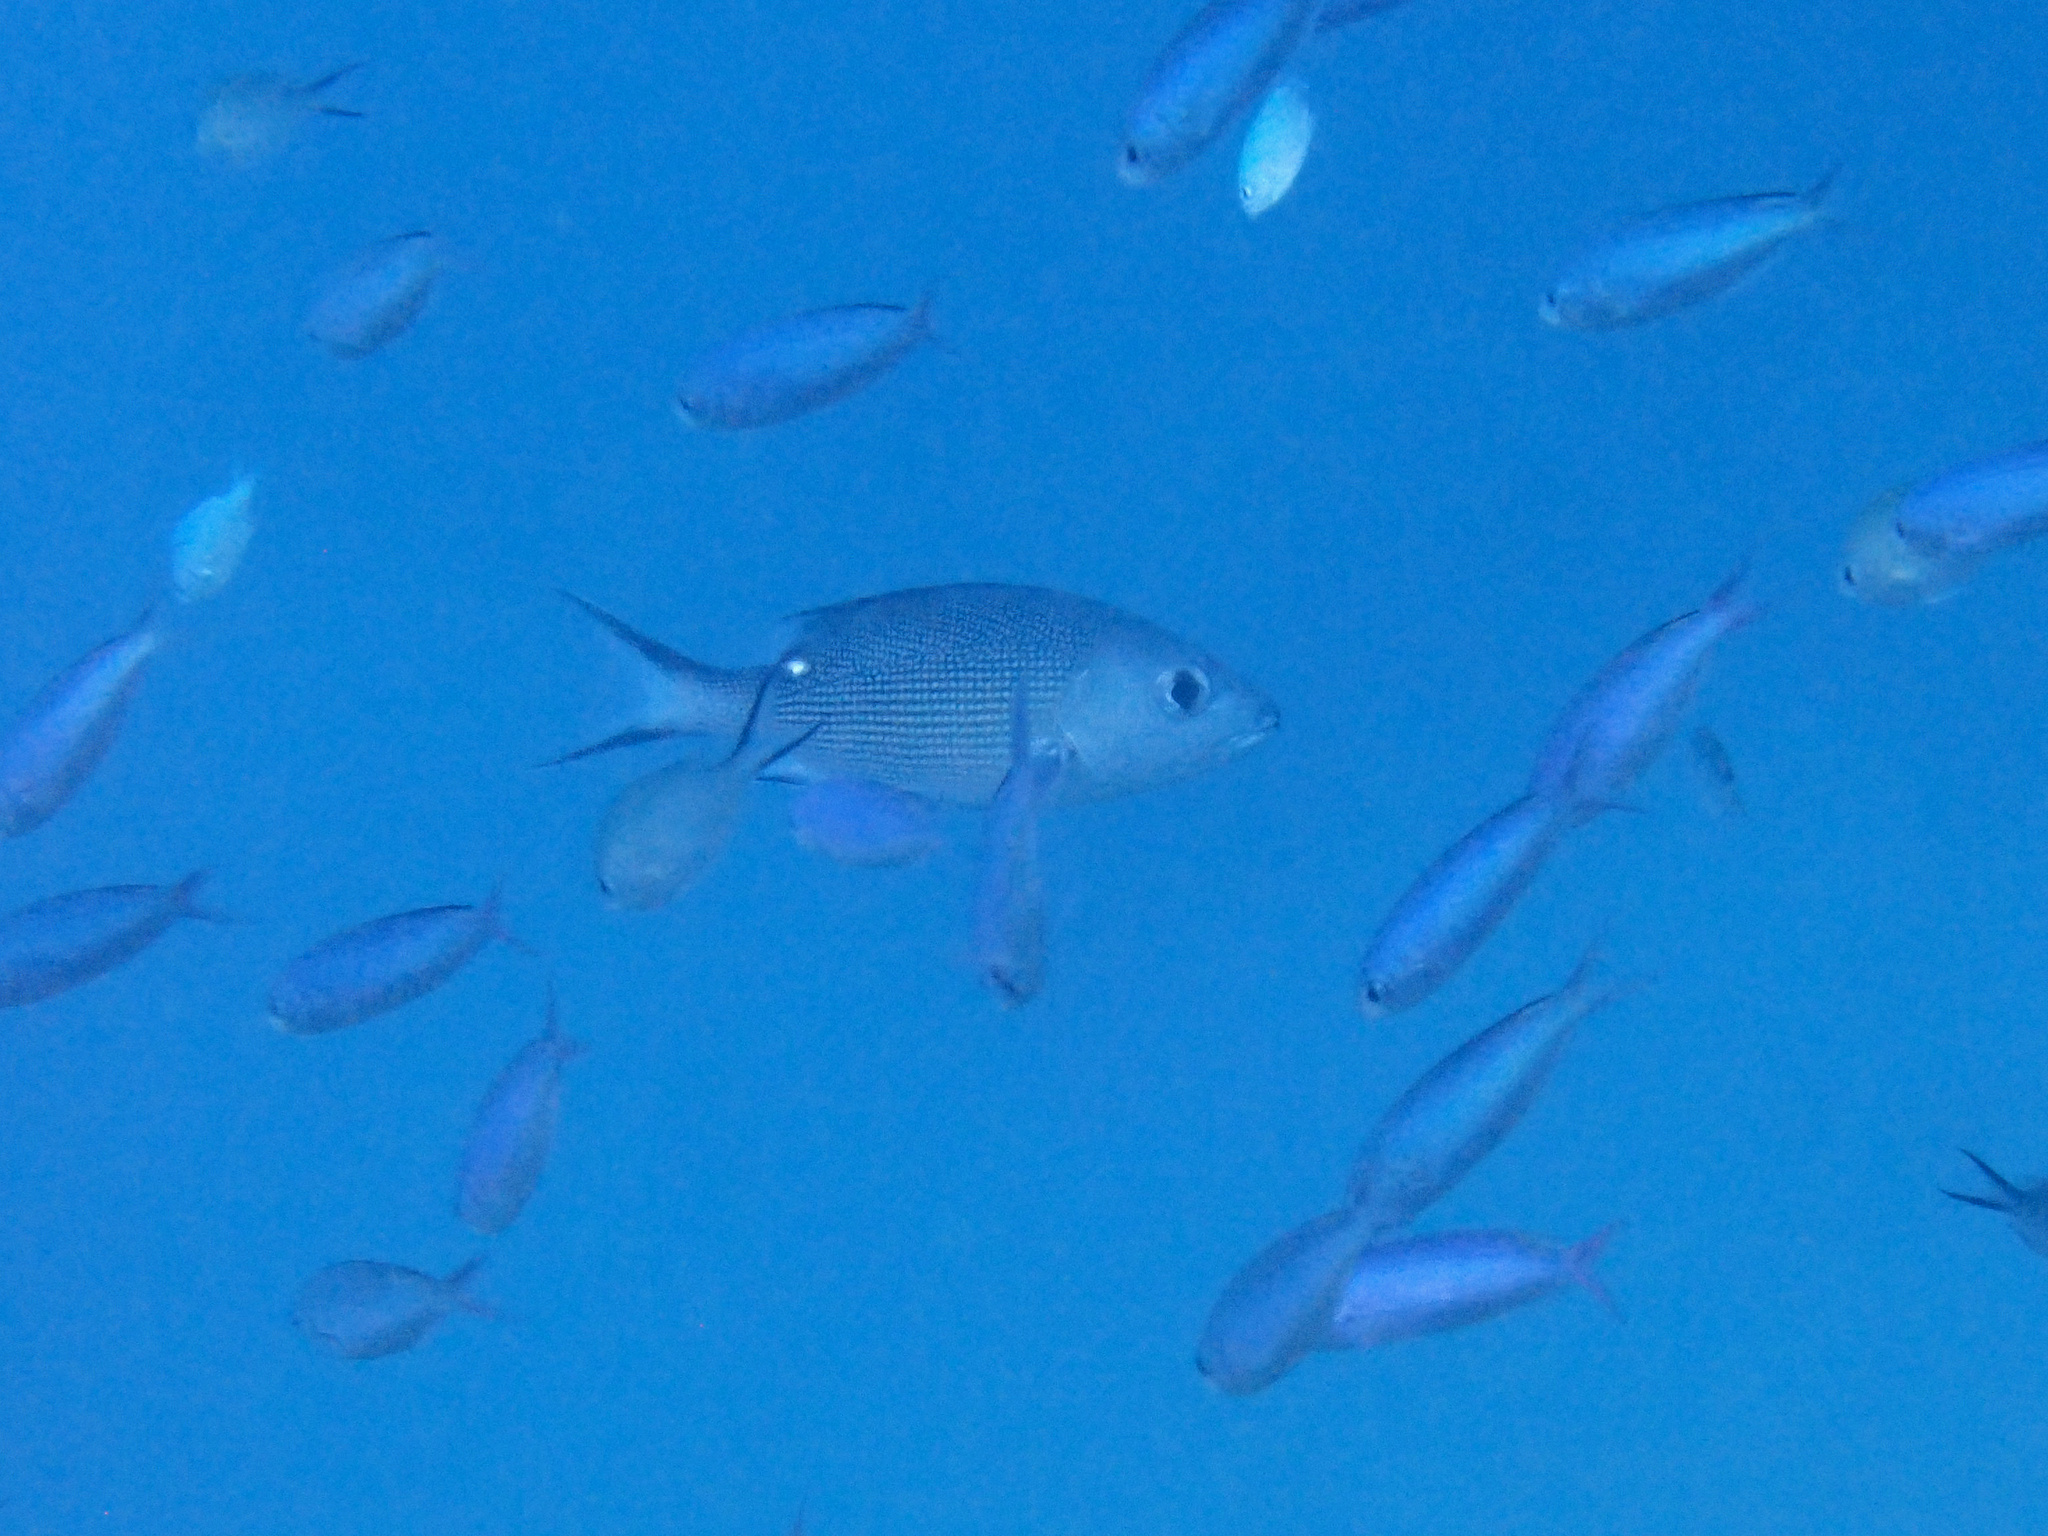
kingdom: Animalia
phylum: Chordata
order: Perciformes
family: Lutjanidae
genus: Lutjanus
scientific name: Lutjanus bohar
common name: Red bass
